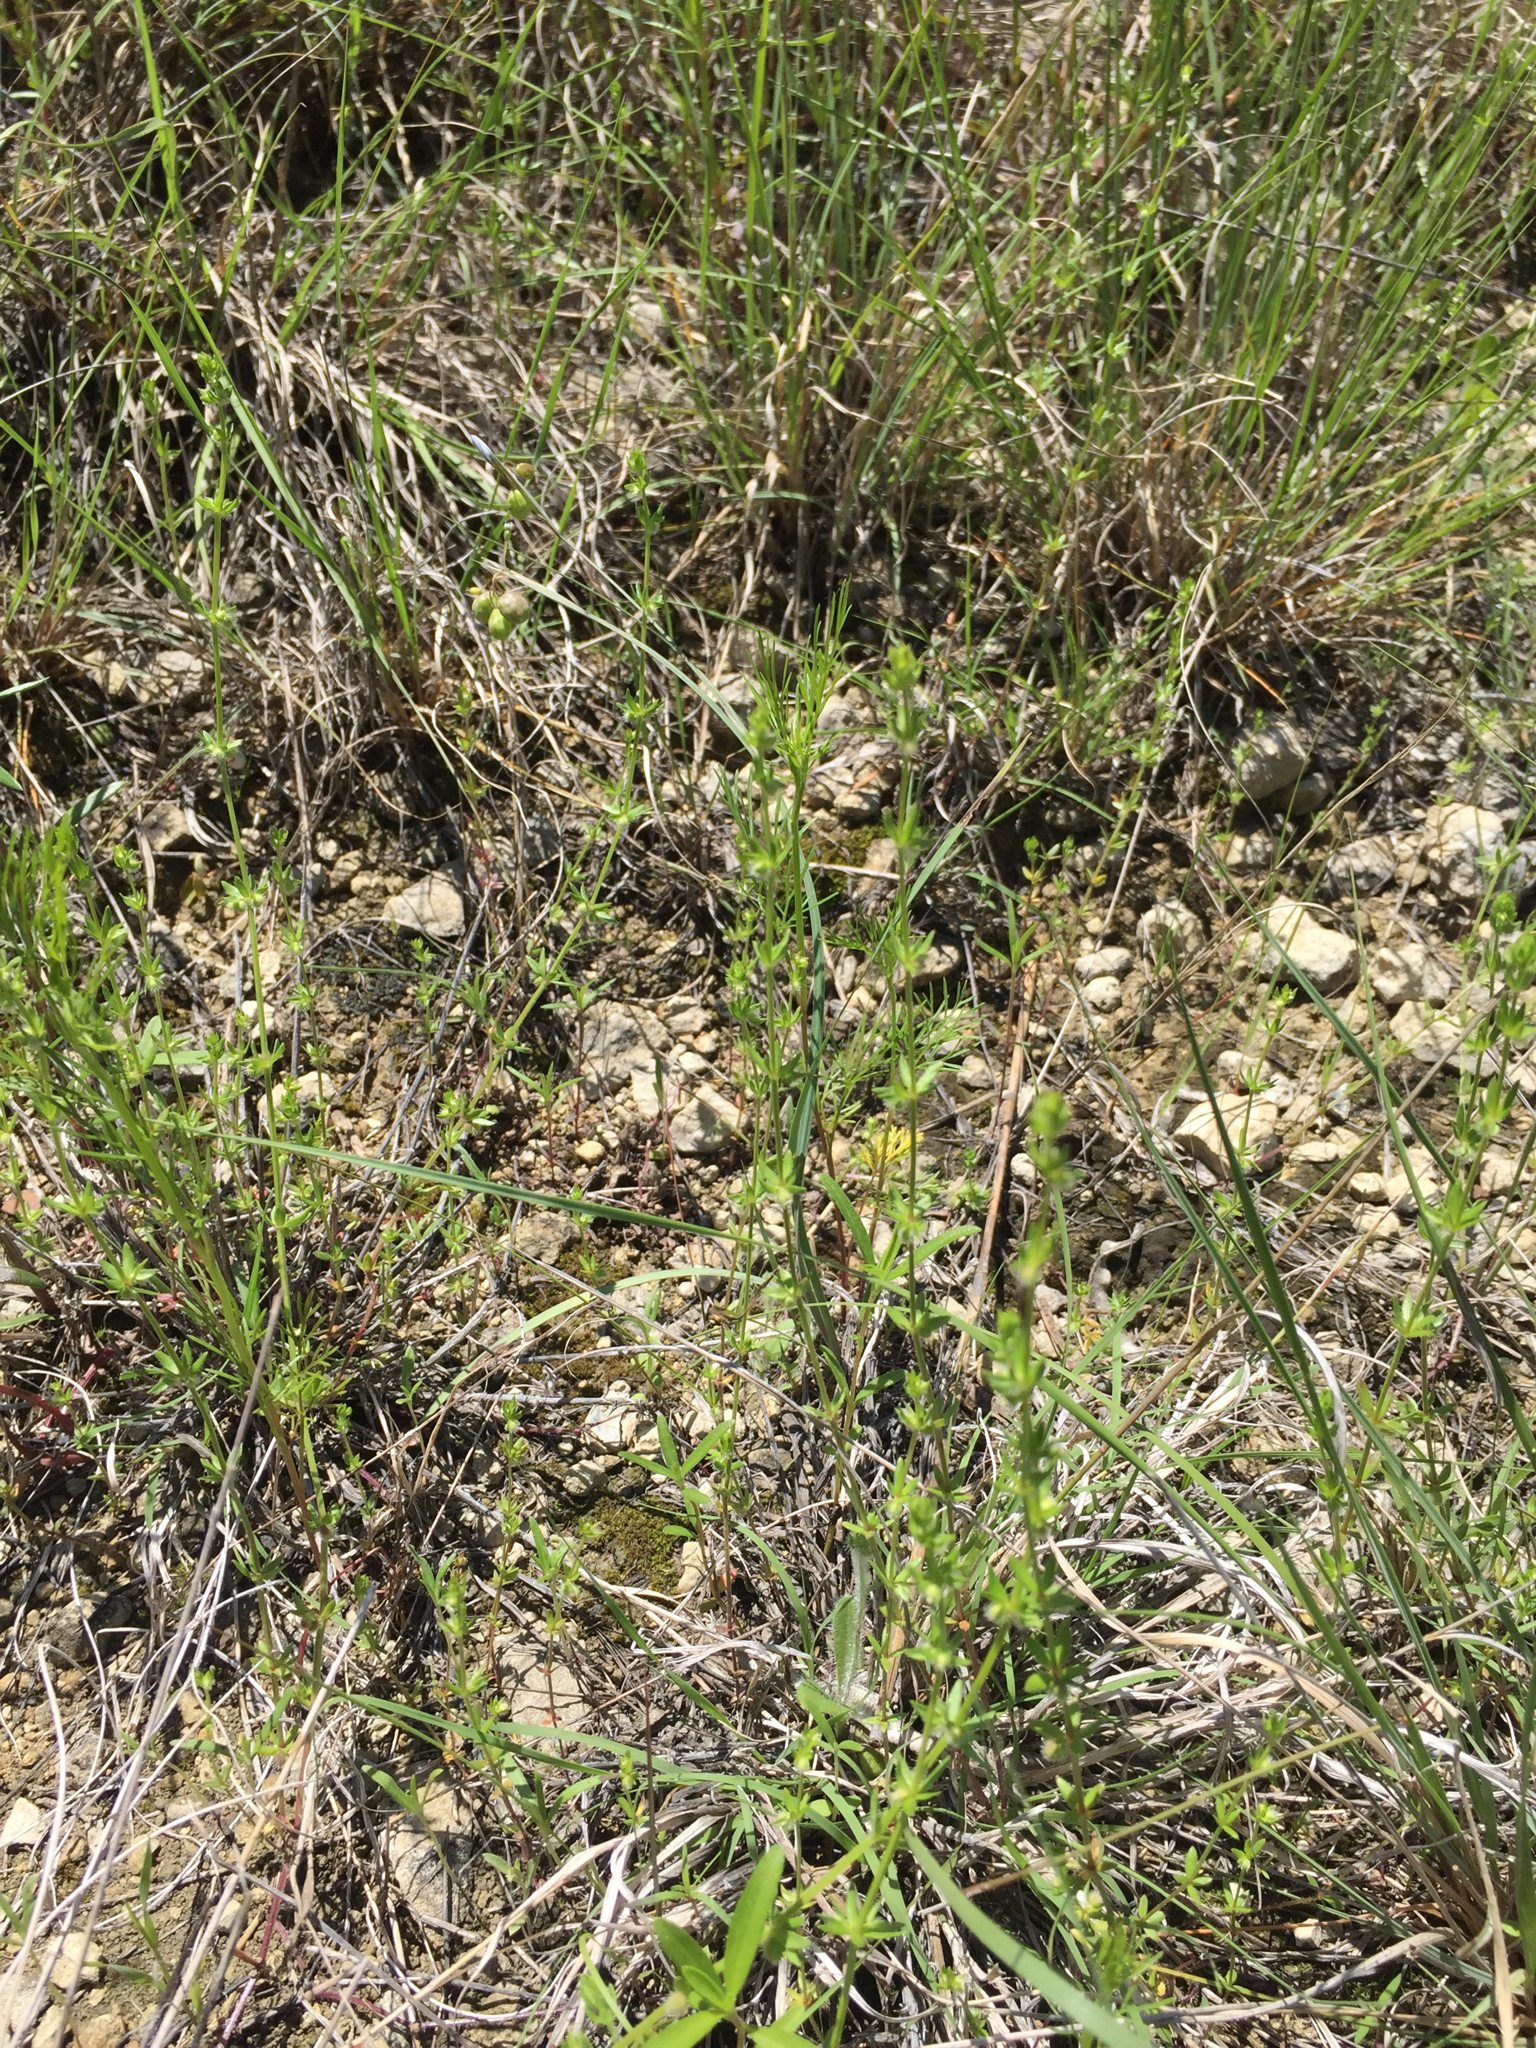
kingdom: Plantae
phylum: Tracheophyta
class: Magnoliopsida
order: Gentianales
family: Rubiaceae
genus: Galium
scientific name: Galium virgatum
